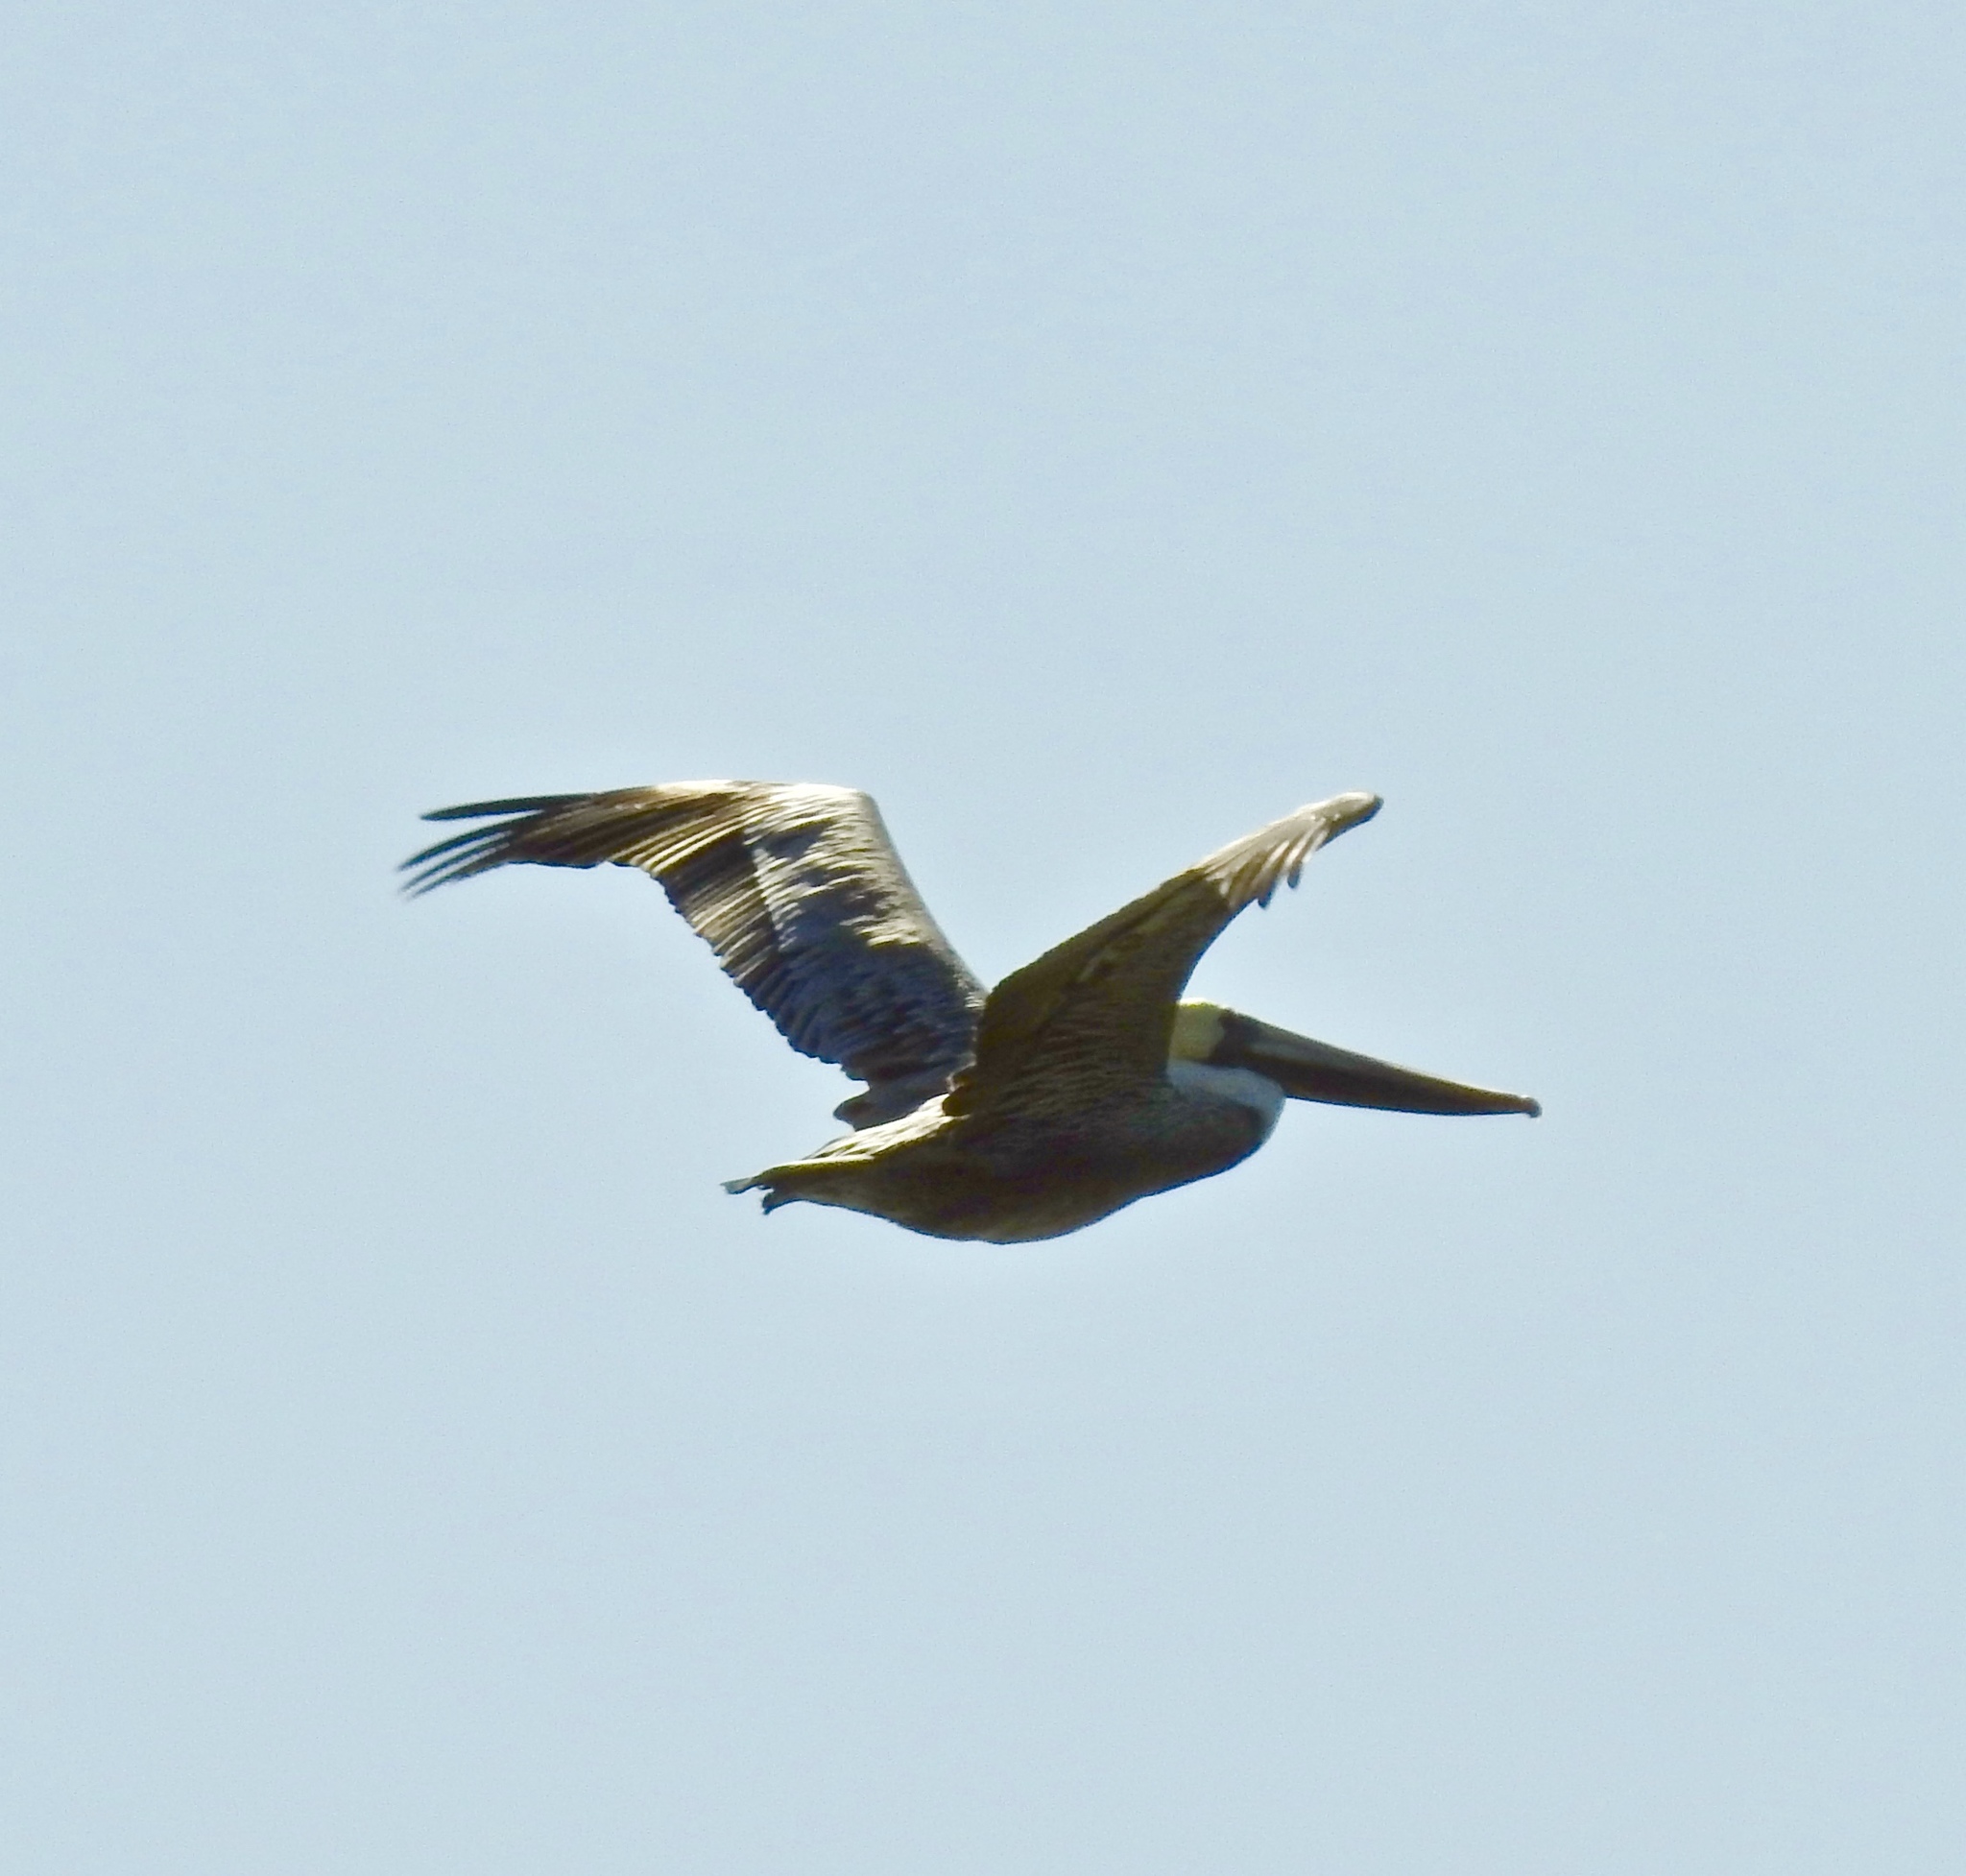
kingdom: Animalia
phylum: Chordata
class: Aves
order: Pelecaniformes
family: Pelecanidae
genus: Pelecanus
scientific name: Pelecanus occidentalis
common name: Brown pelican
